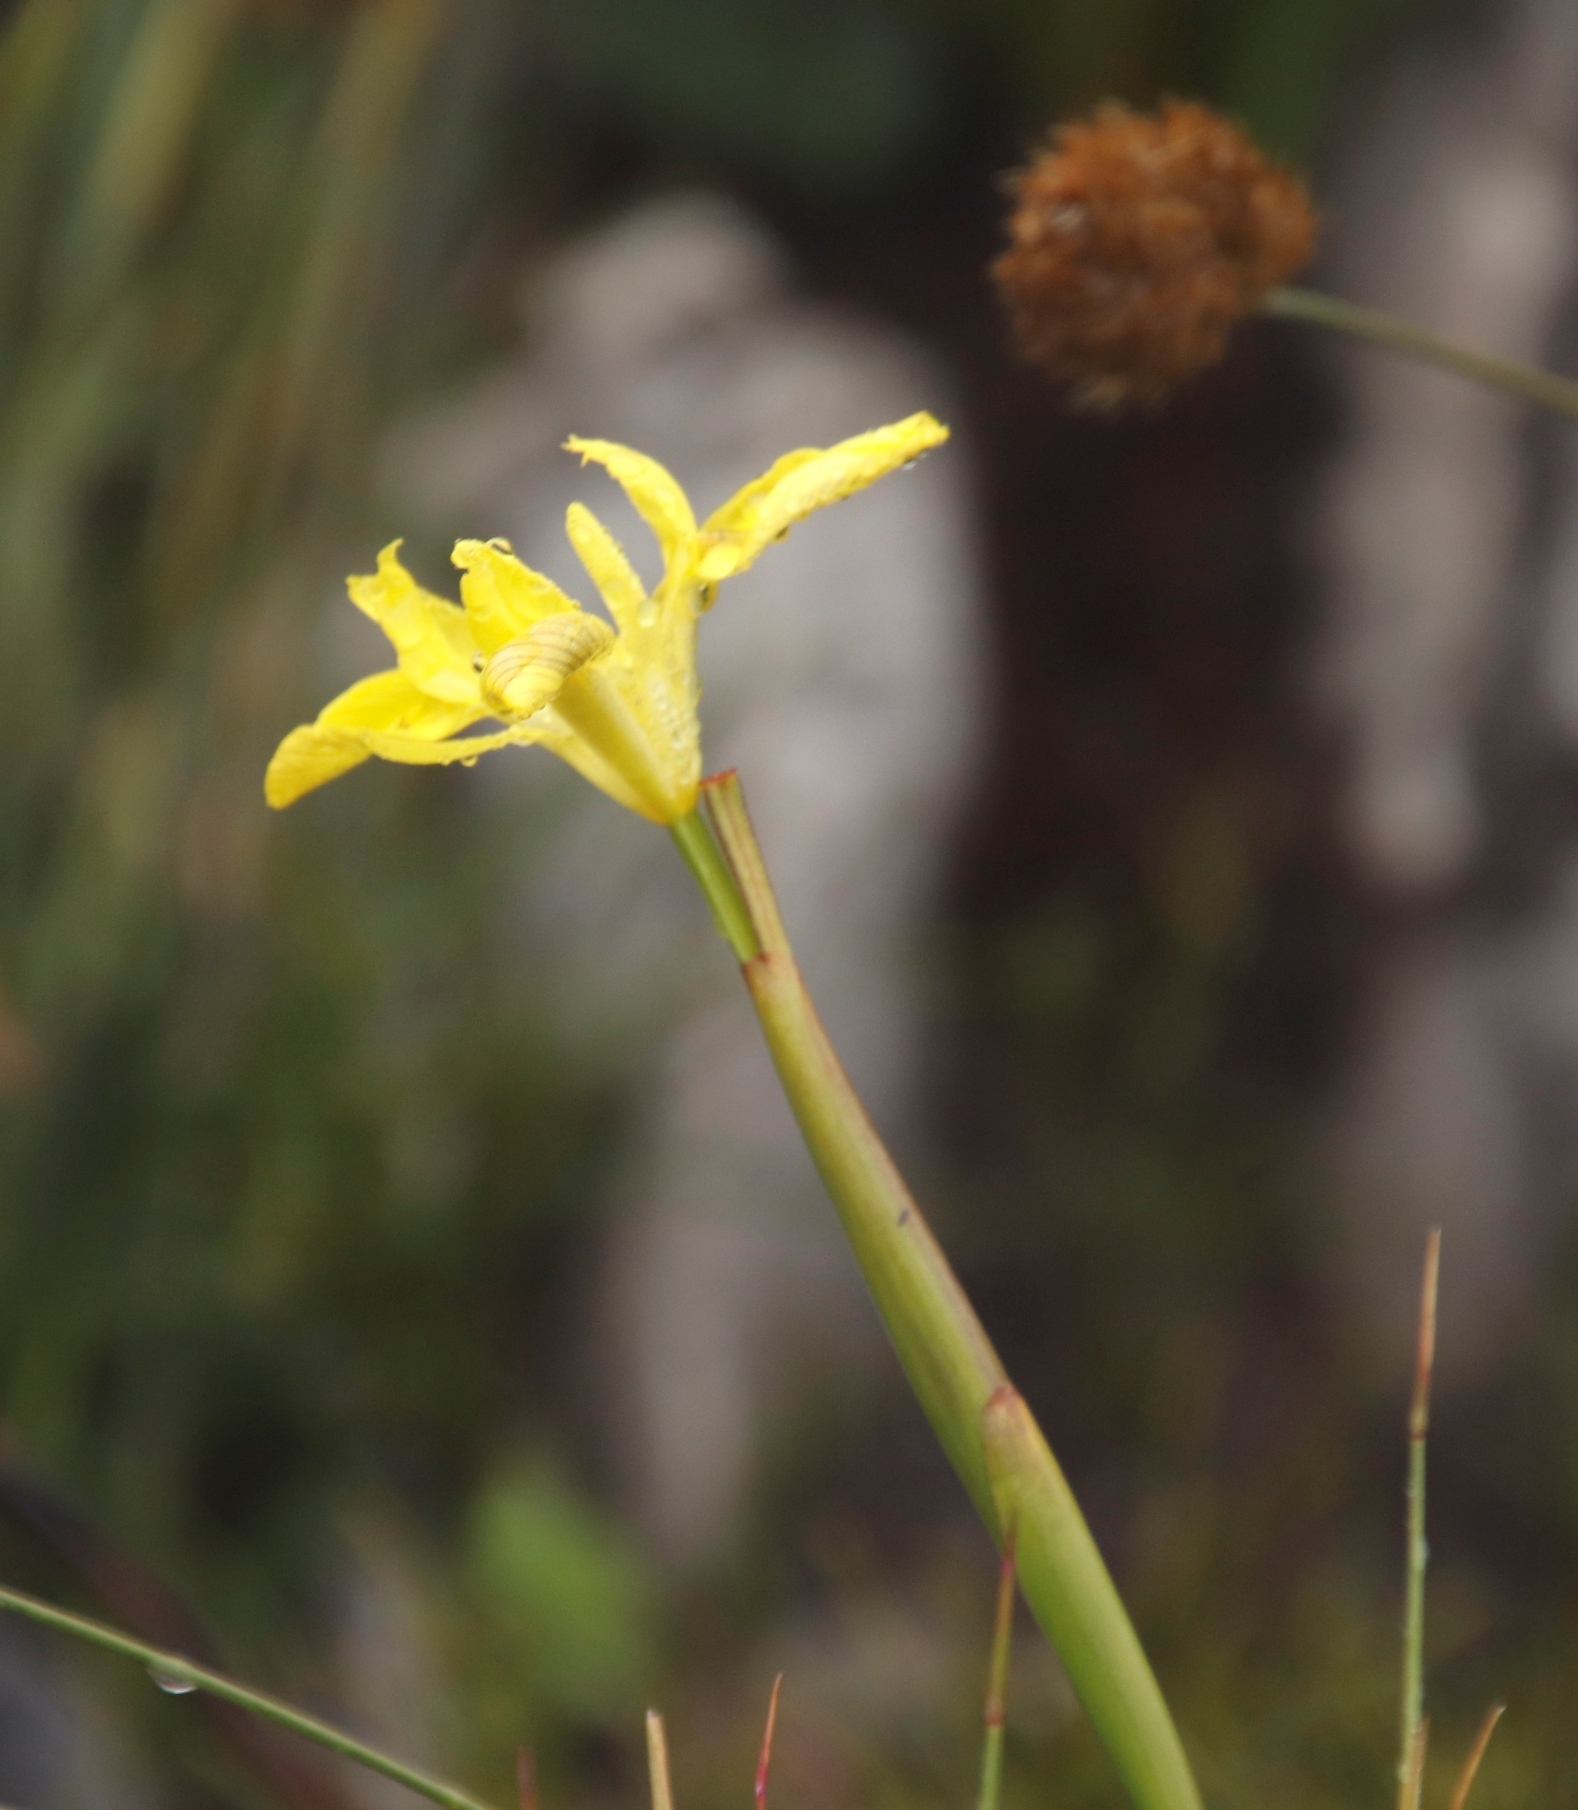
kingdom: Plantae
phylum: Tracheophyta
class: Liliopsida
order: Asparagales
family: Iridaceae
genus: Moraea
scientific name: Moraea neglecta
